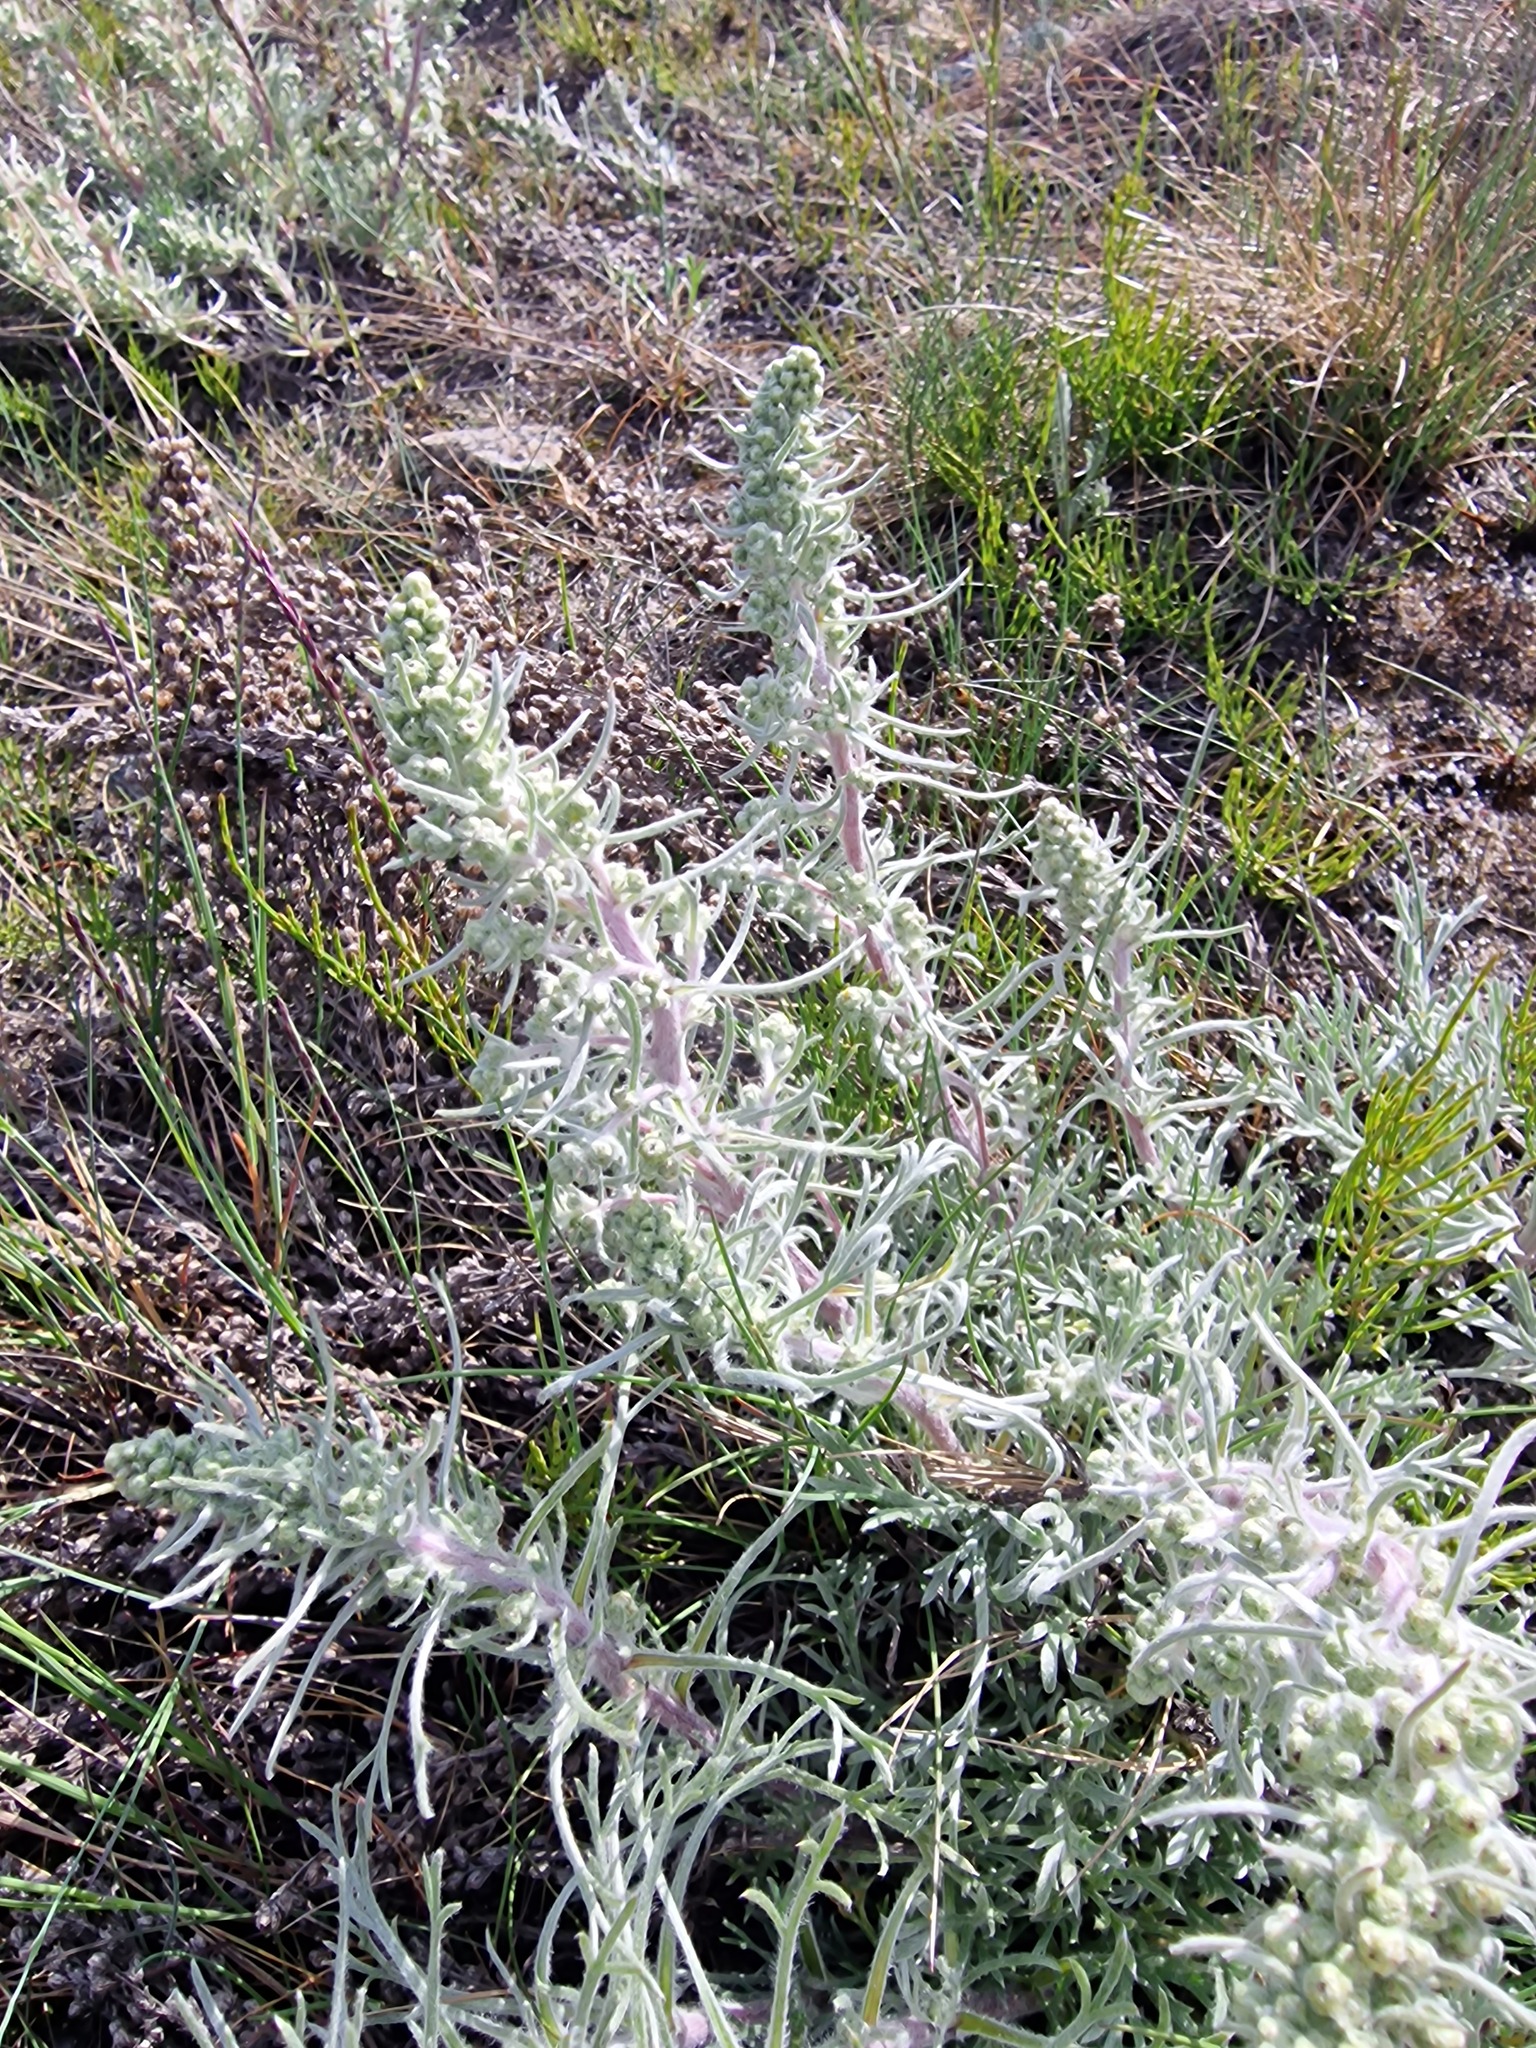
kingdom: Plantae
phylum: Tracheophyta
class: Magnoliopsida
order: Asterales
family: Asteraceae
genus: Artemisia
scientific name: Artemisia borealis
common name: Boreal sage
